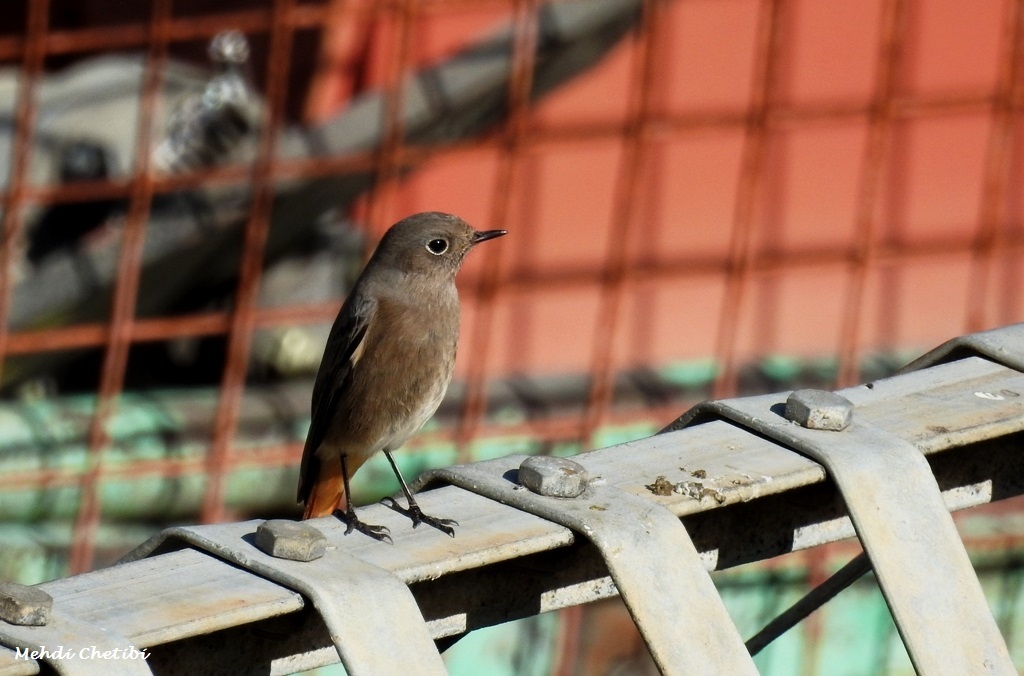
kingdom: Animalia
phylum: Chordata
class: Aves
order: Passeriformes
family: Muscicapidae
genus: Phoenicurus
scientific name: Phoenicurus ochruros
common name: Black redstart
